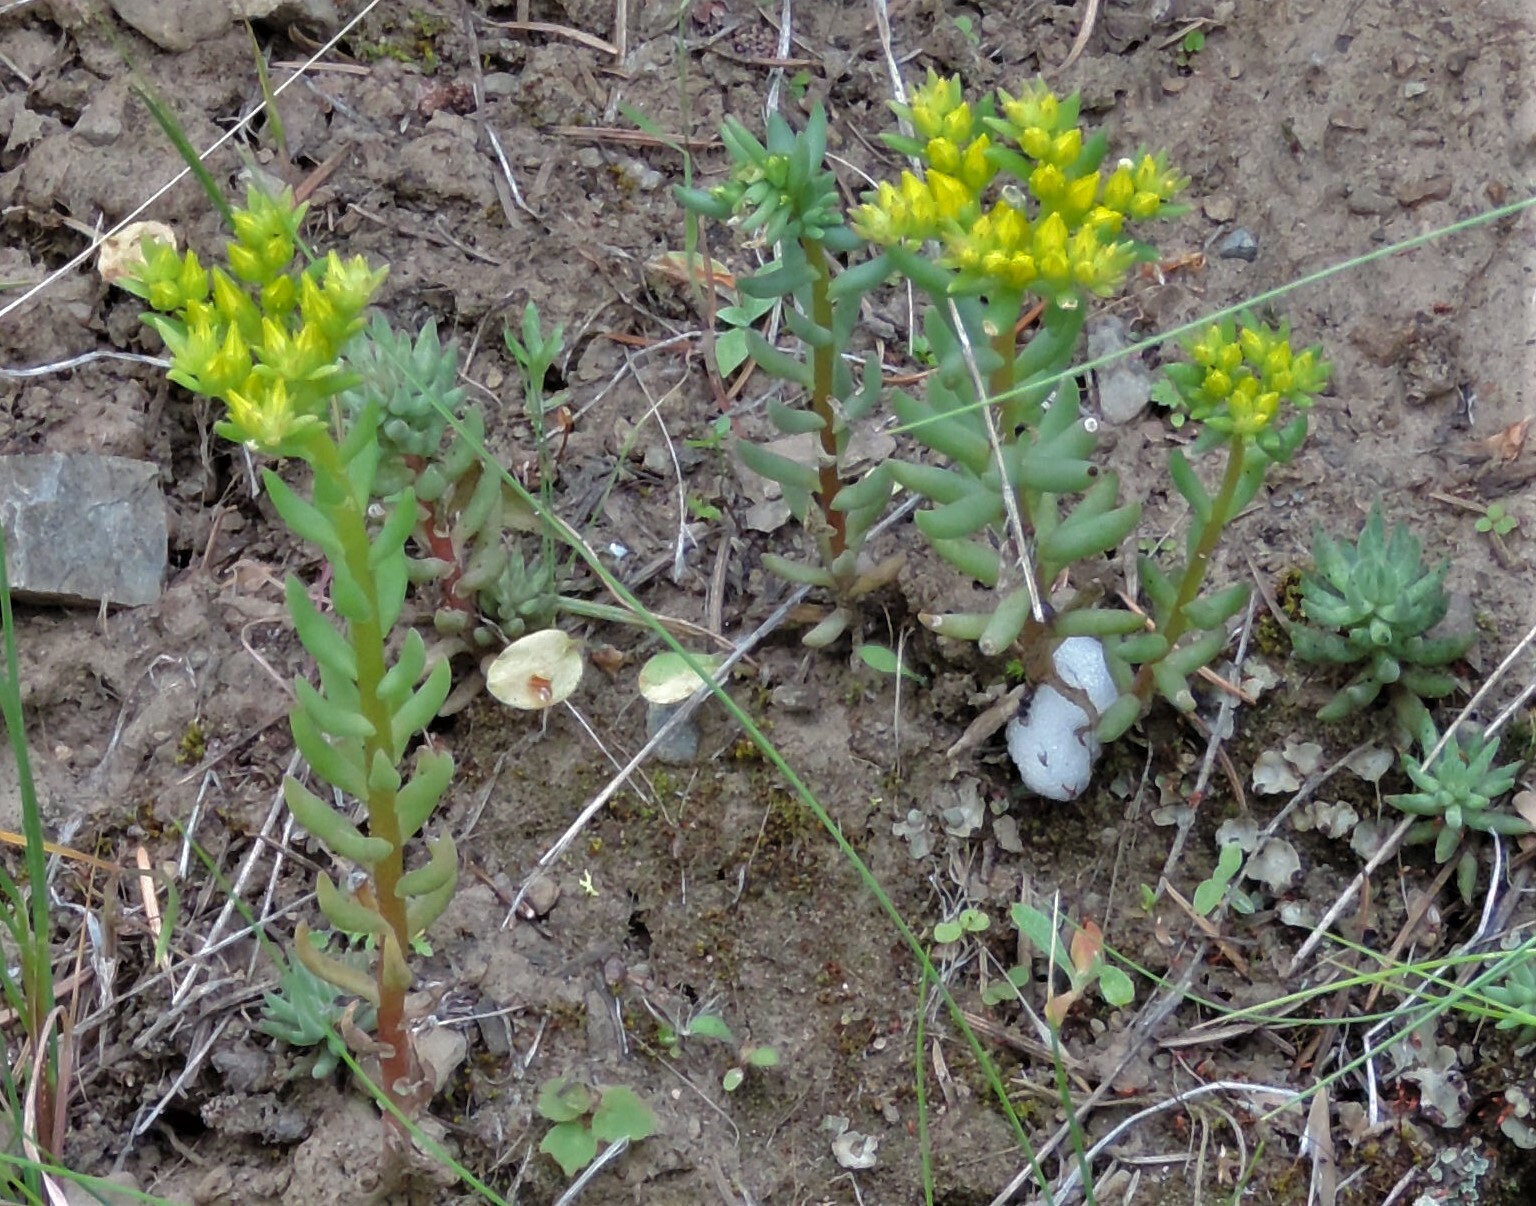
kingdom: Plantae
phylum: Tracheophyta
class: Magnoliopsida
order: Saxifragales
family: Crassulaceae
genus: Sedum
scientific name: Sedum lanceolatum
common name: Common stonecrop
